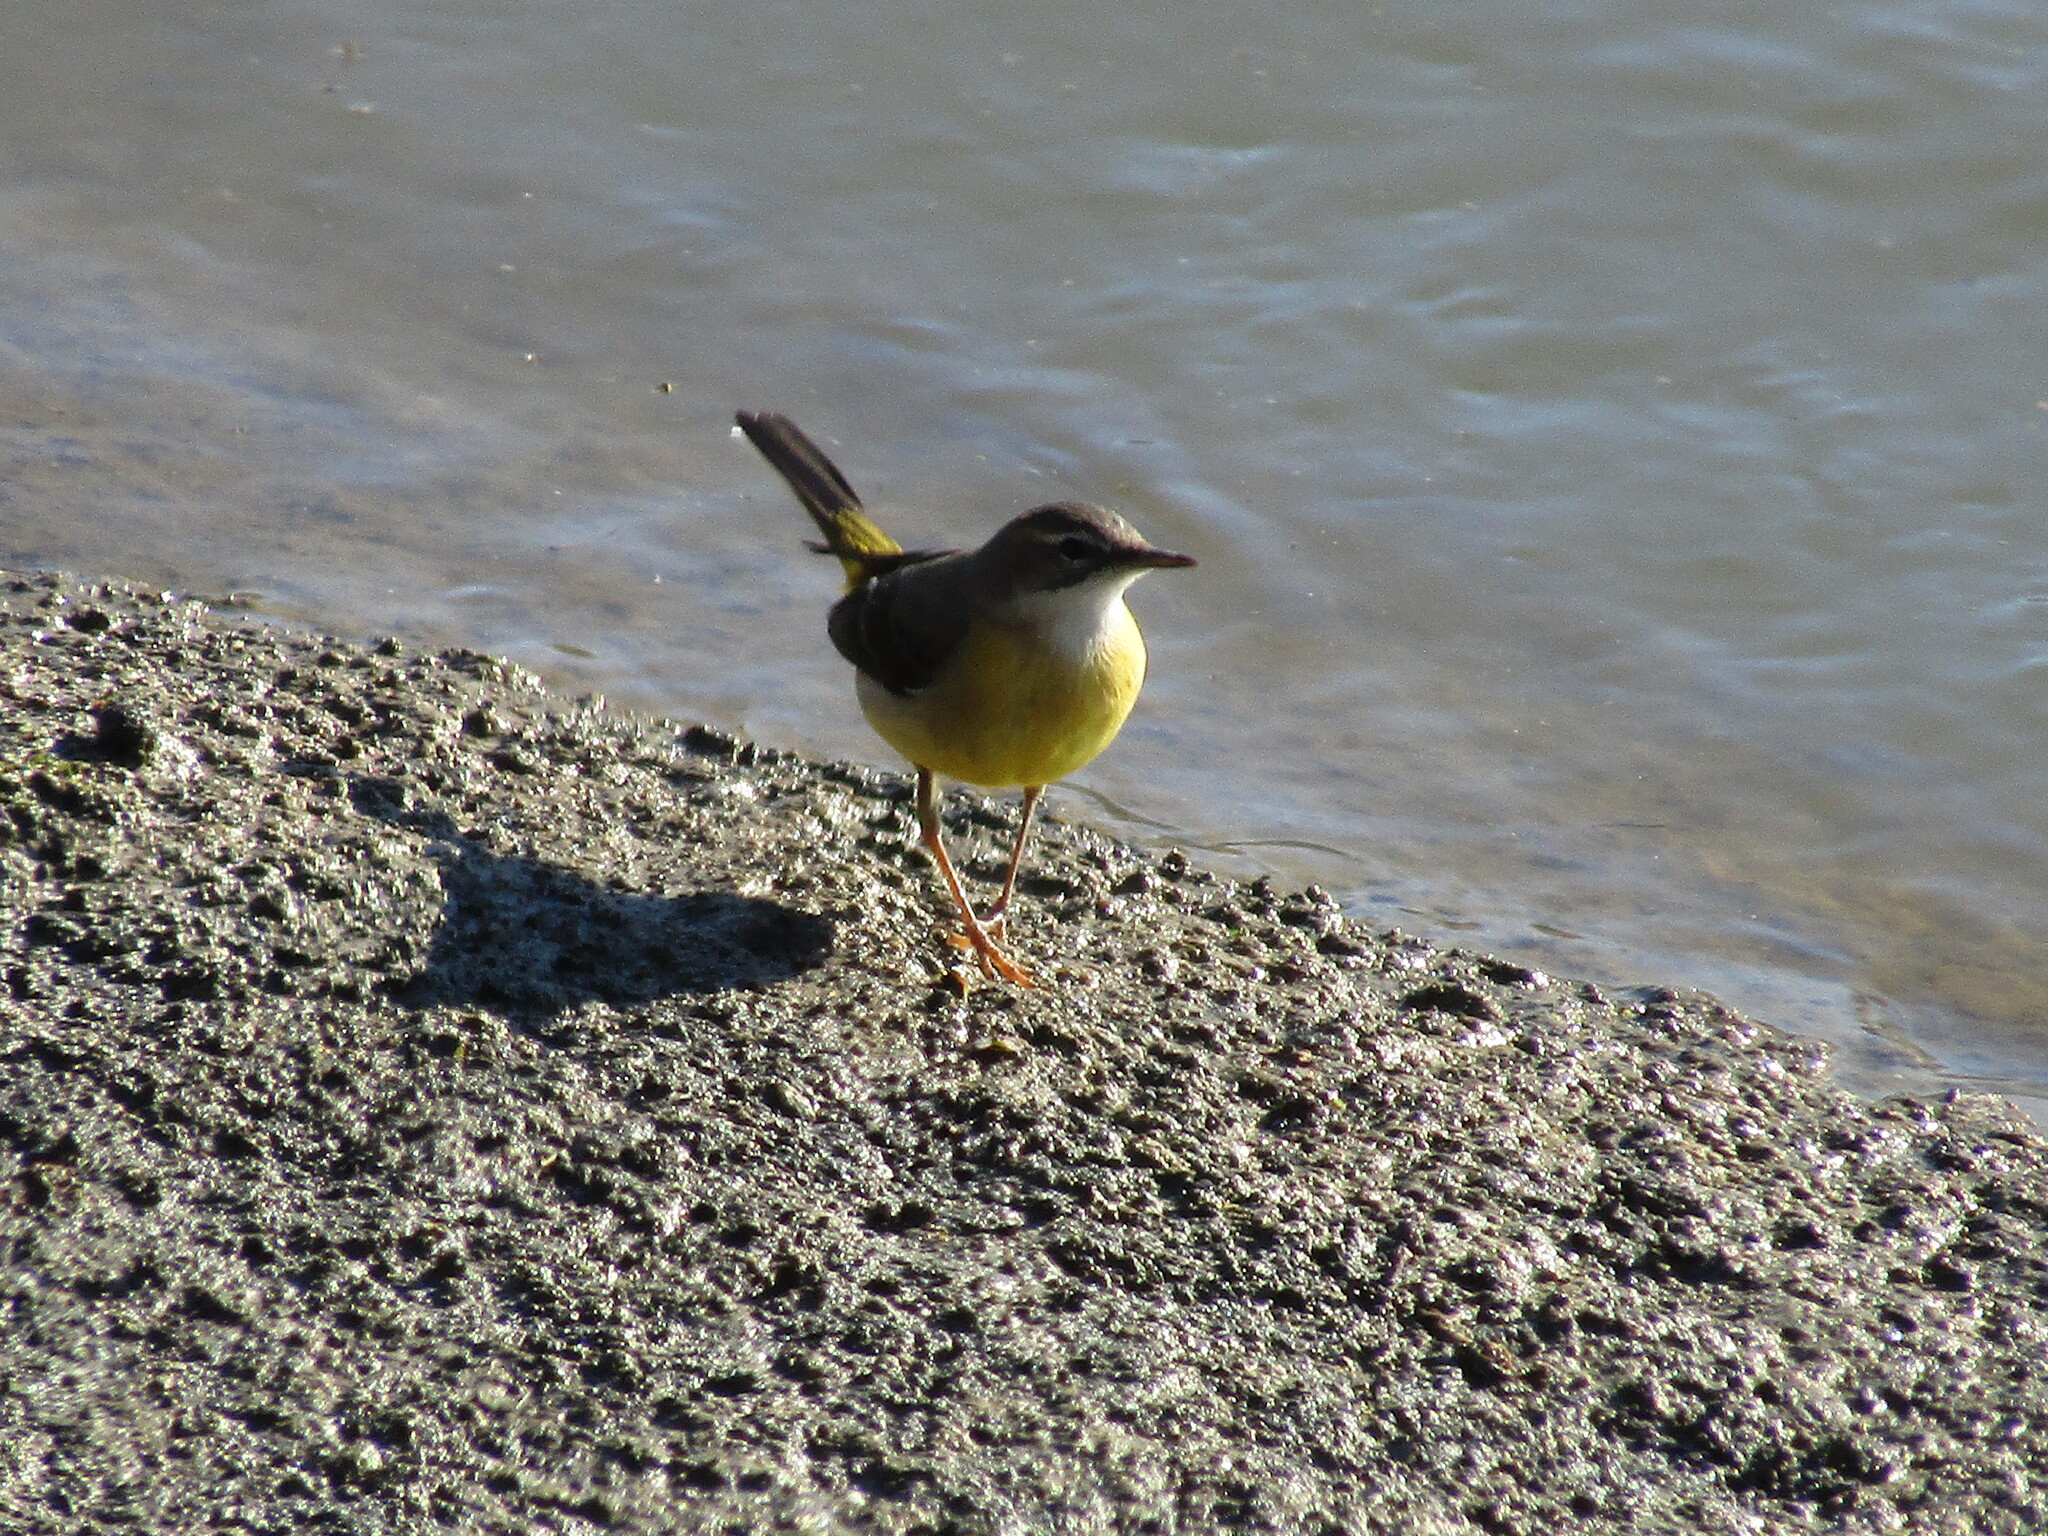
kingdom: Animalia
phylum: Chordata
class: Aves
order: Passeriformes
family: Motacillidae
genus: Motacilla
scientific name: Motacilla cinerea
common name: Grey wagtail
